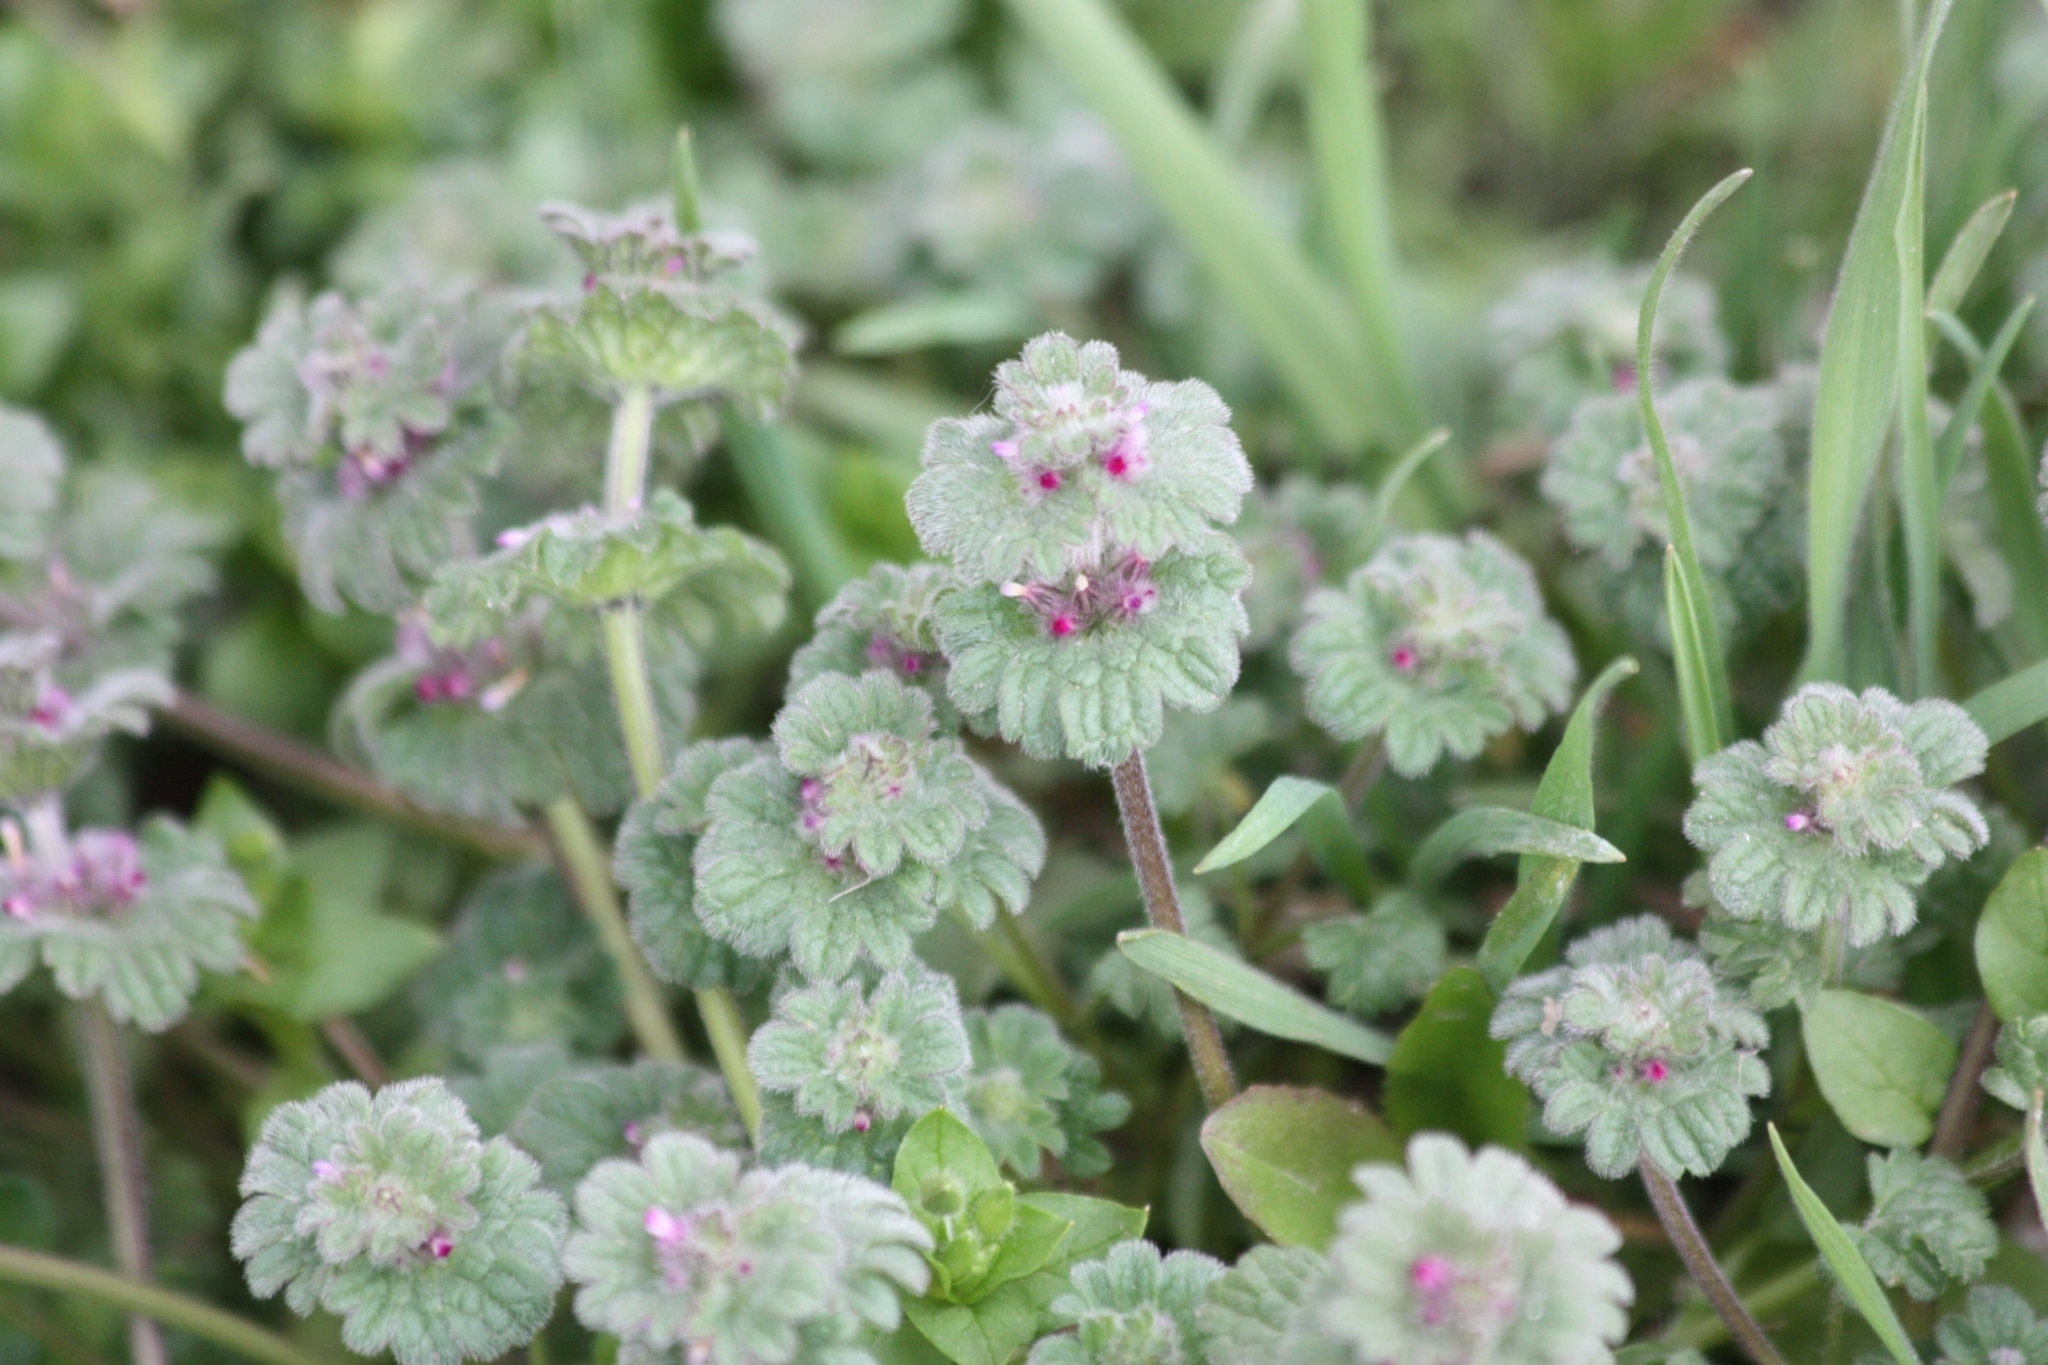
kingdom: Plantae
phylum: Tracheophyta
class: Magnoliopsida
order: Lamiales
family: Lamiaceae
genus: Lamium
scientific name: Lamium amplexicaule
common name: Henbit dead-nettle
